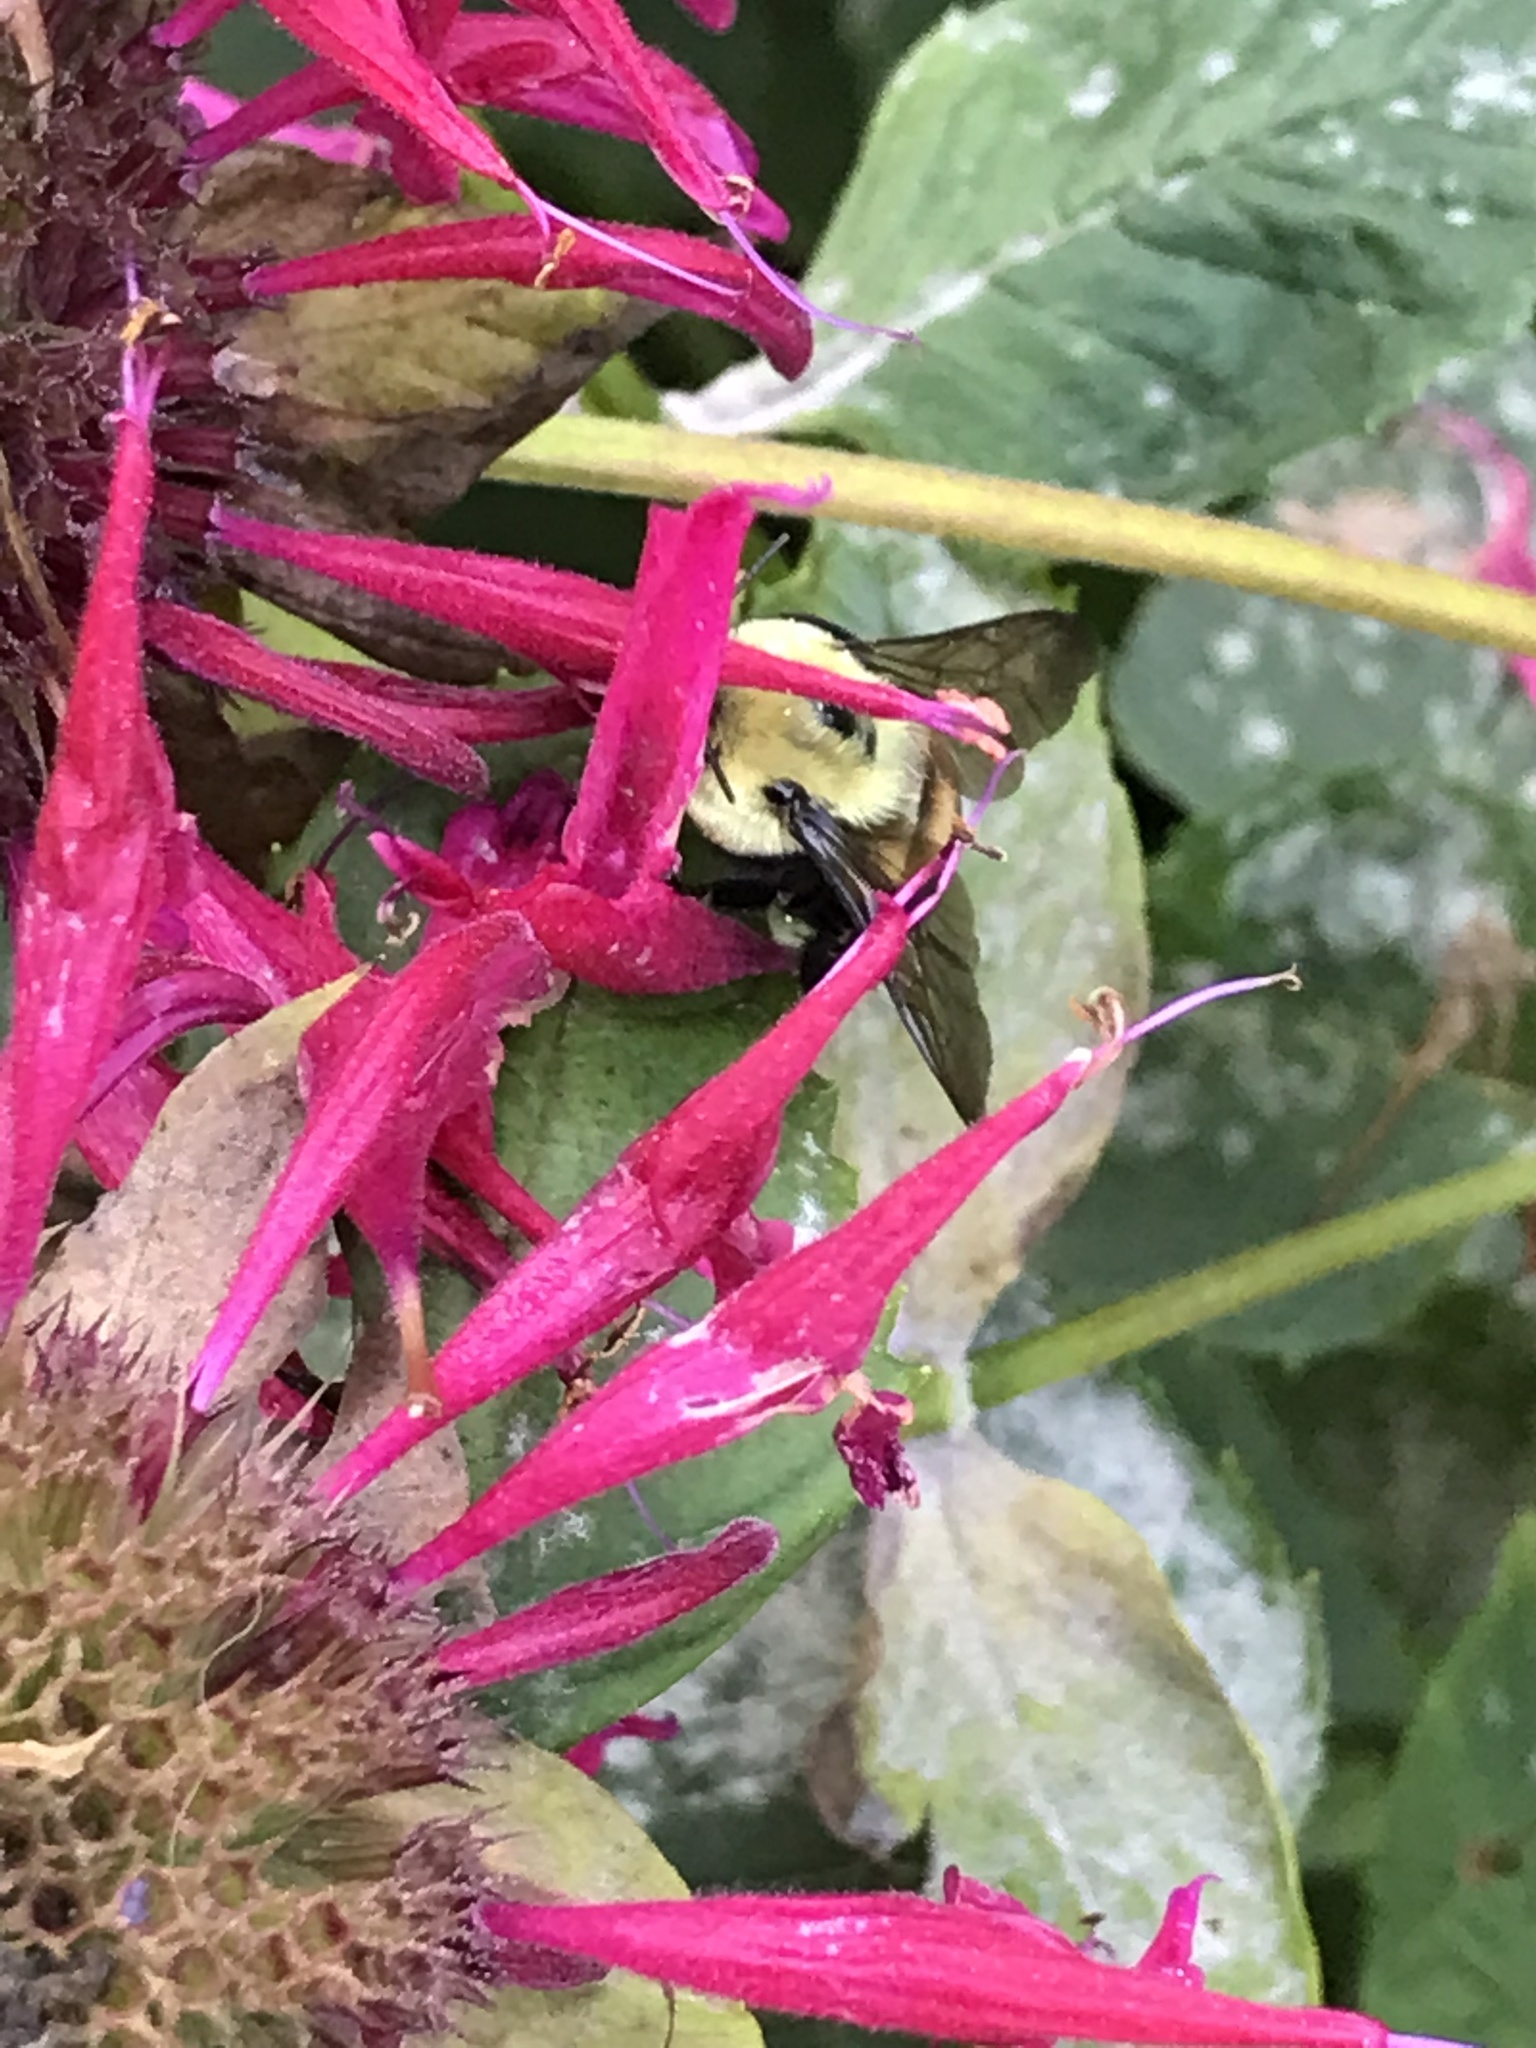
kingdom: Animalia
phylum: Arthropoda
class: Insecta
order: Hymenoptera
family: Apidae
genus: Bombus
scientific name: Bombus griseocollis
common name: Brown-belted bumble bee
